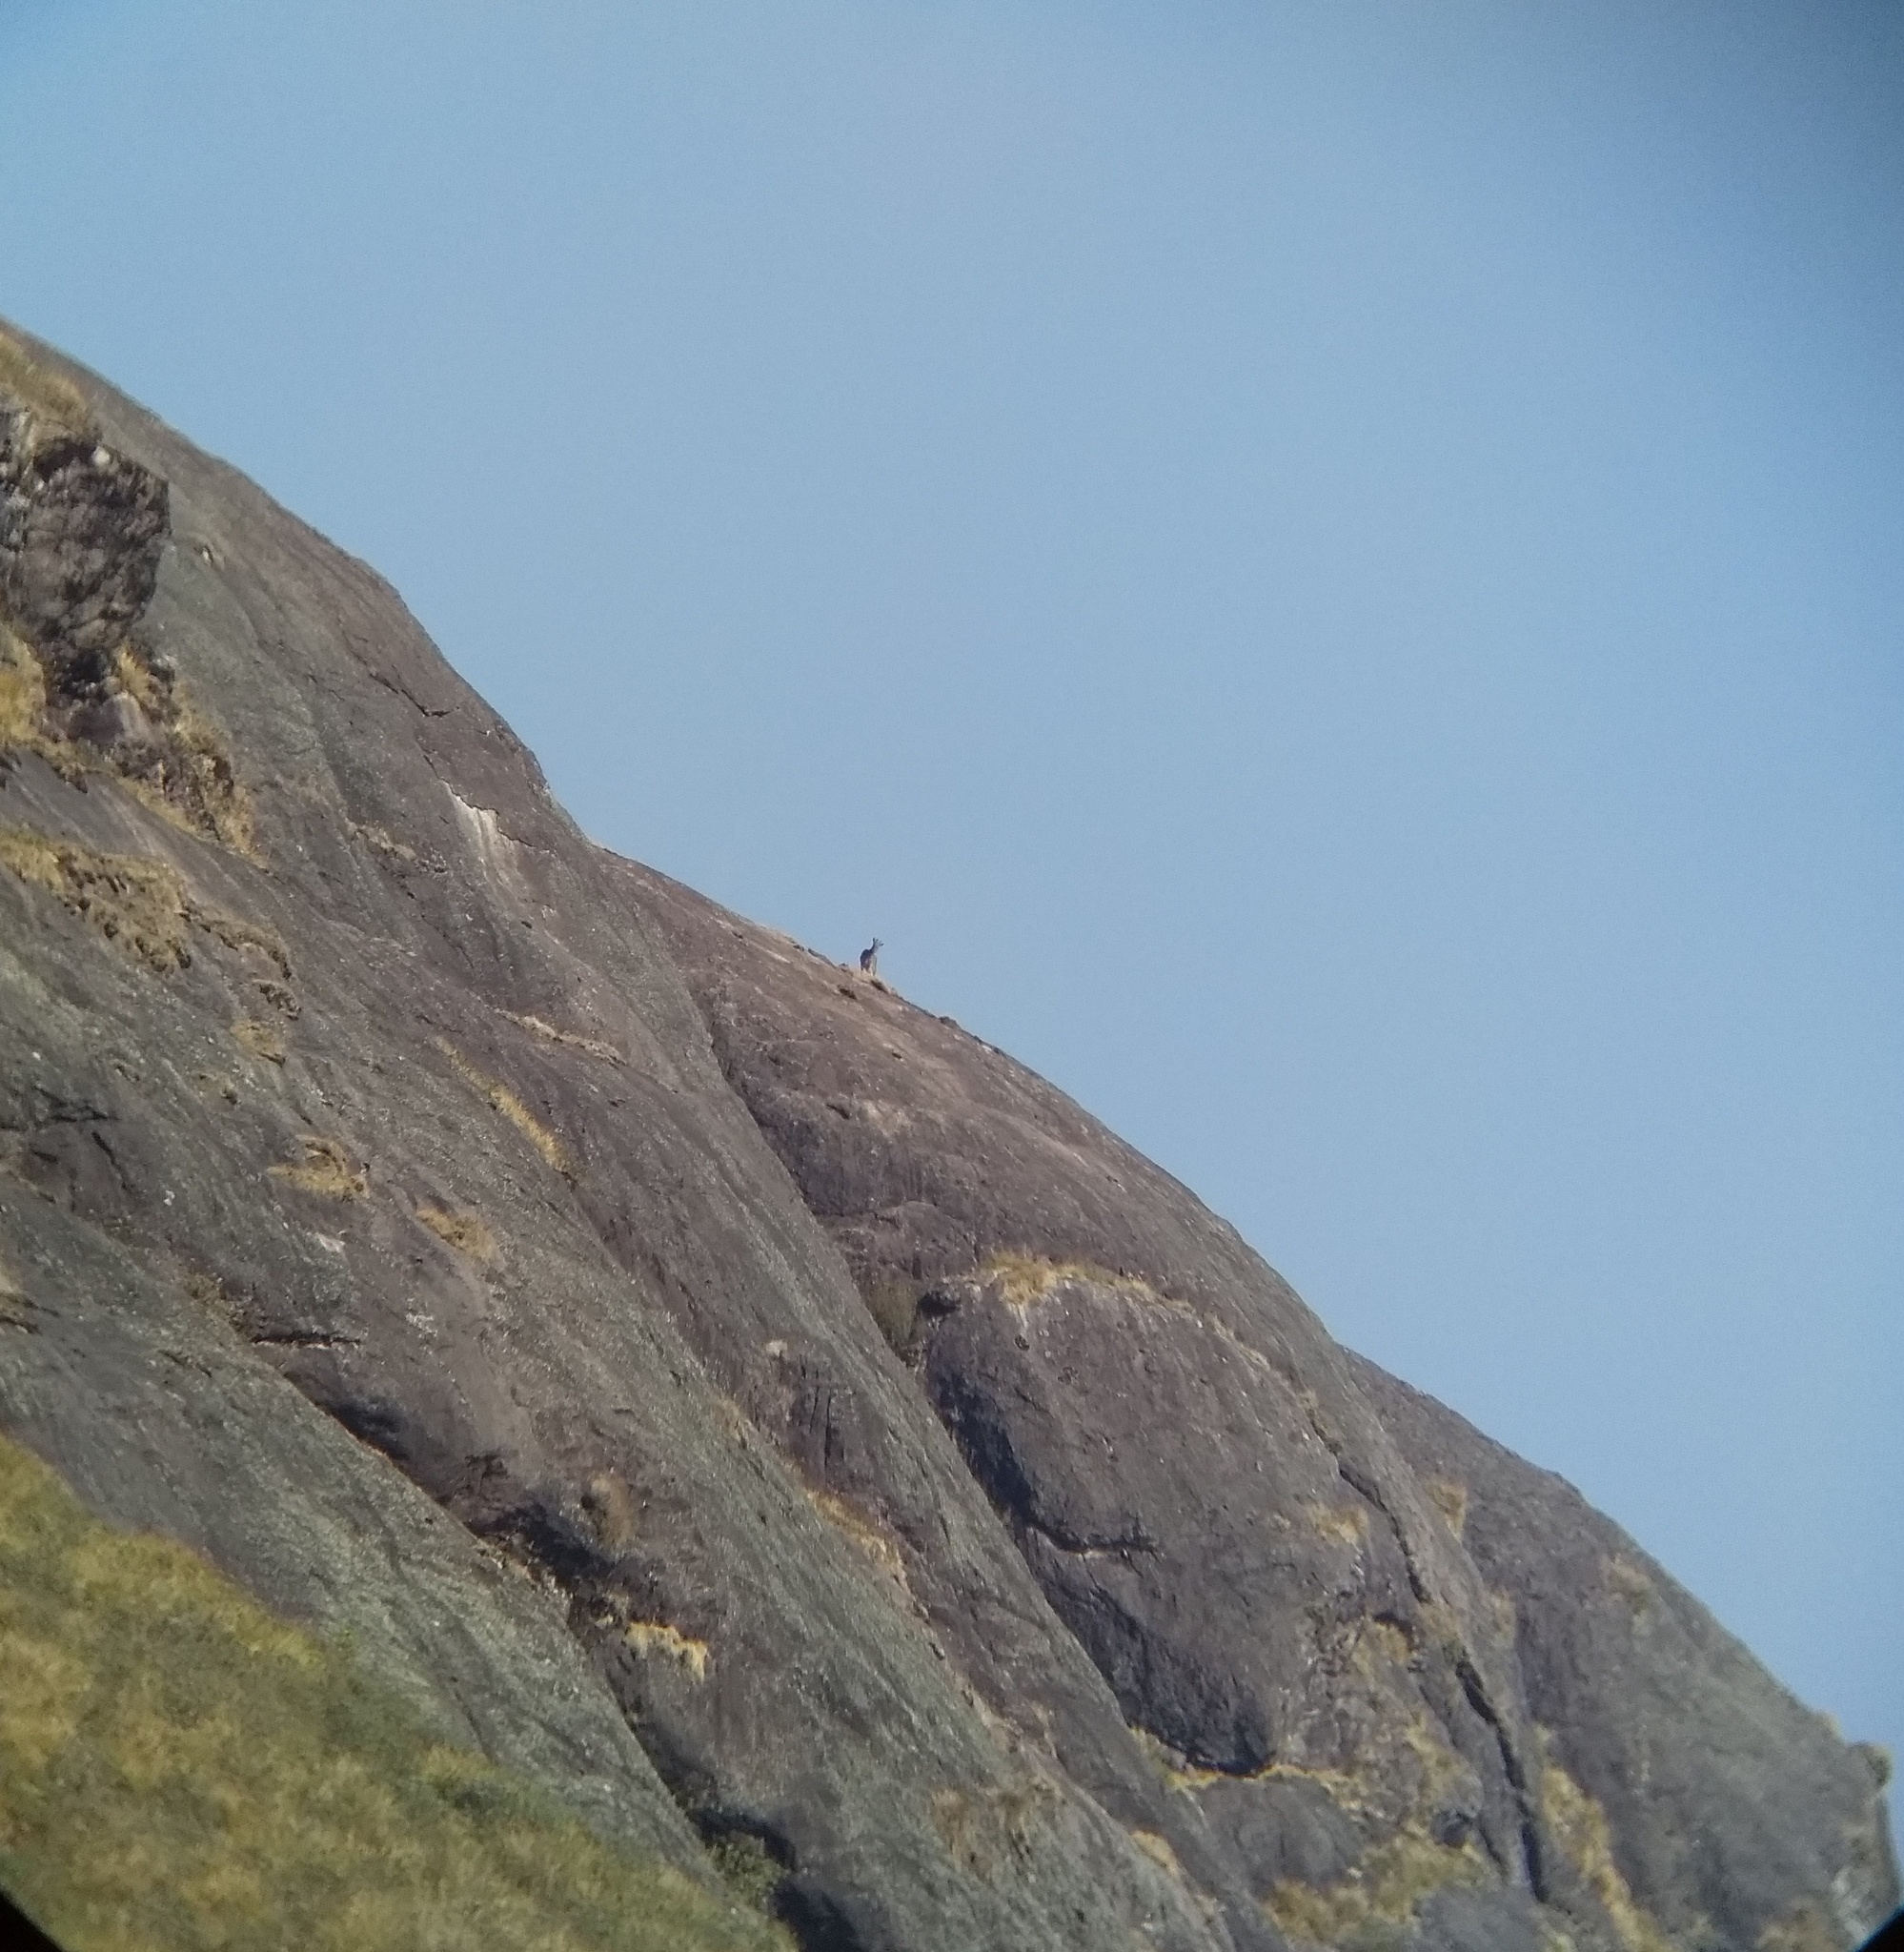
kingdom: Animalia
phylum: Chordata
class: Mammalia
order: Artiodactyla
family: Bovidae
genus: Hemitragus
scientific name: Hemitragus hylocrius
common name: Nilgiri tahr
